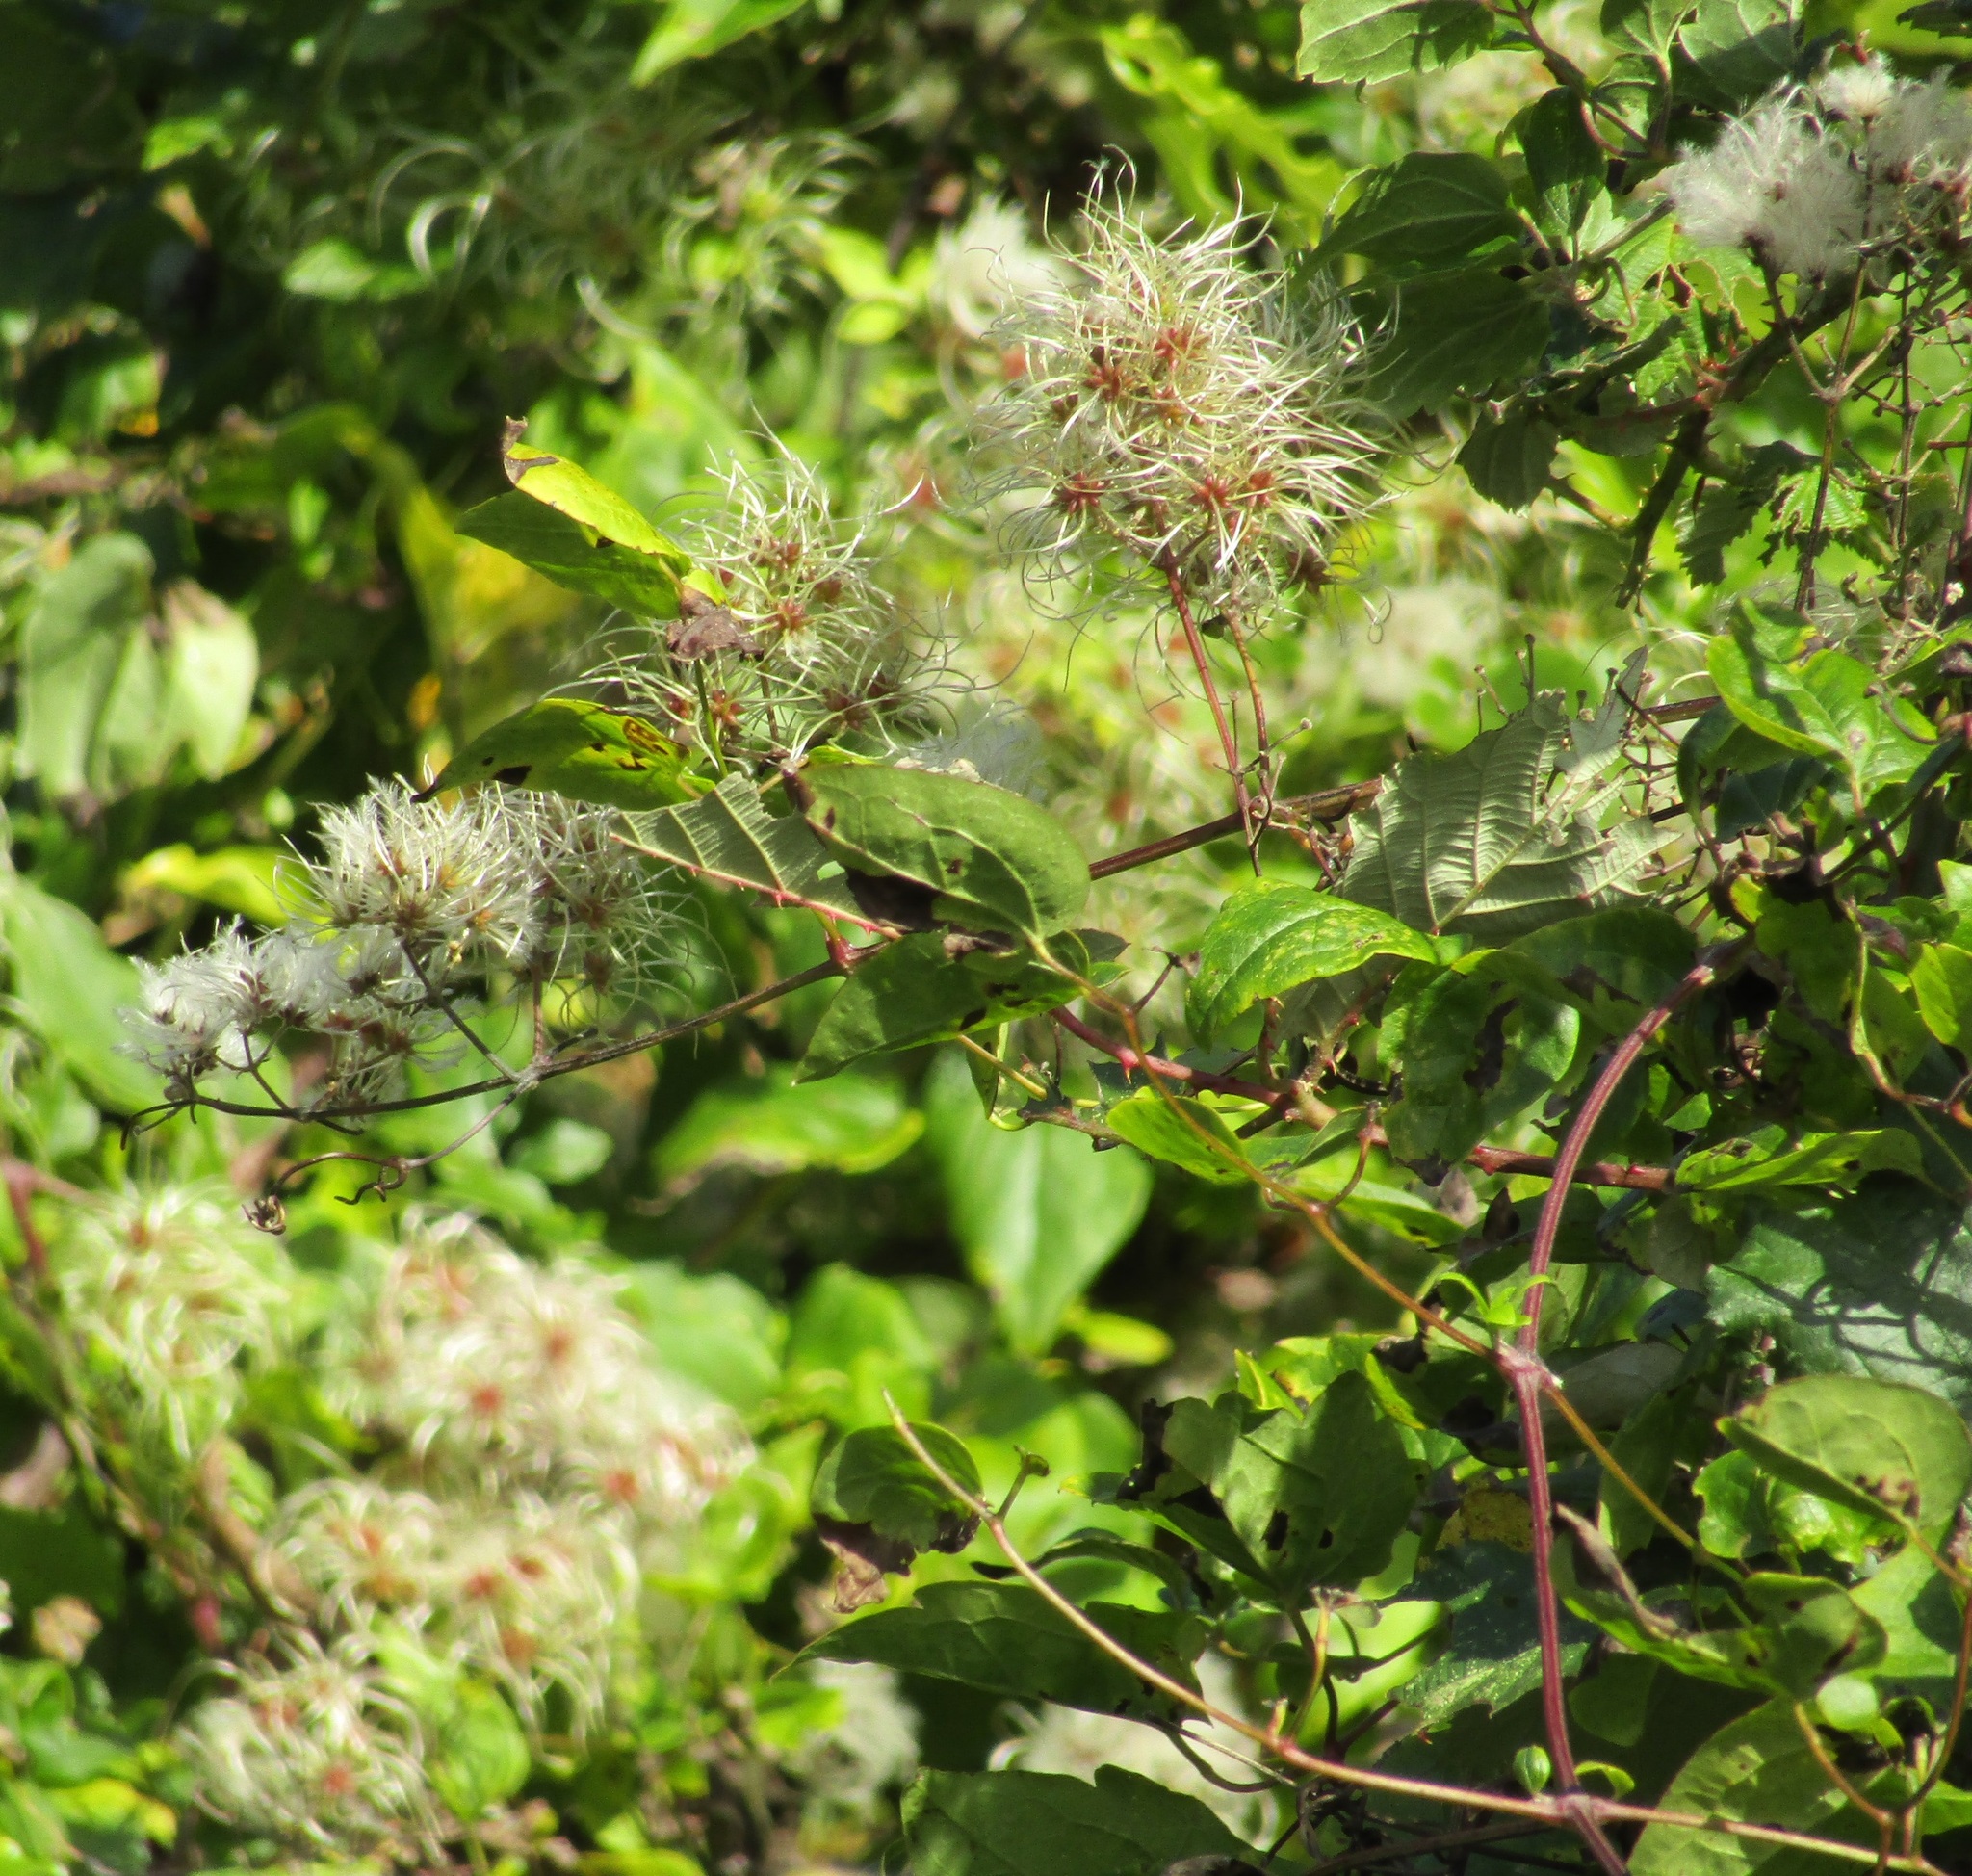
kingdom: Plantae
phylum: Tracheophyta
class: Magnoliopsida
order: Ranunculales
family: Ranunculaceae
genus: Clematis
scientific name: Clematis vitalba
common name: Evergreen clematis
